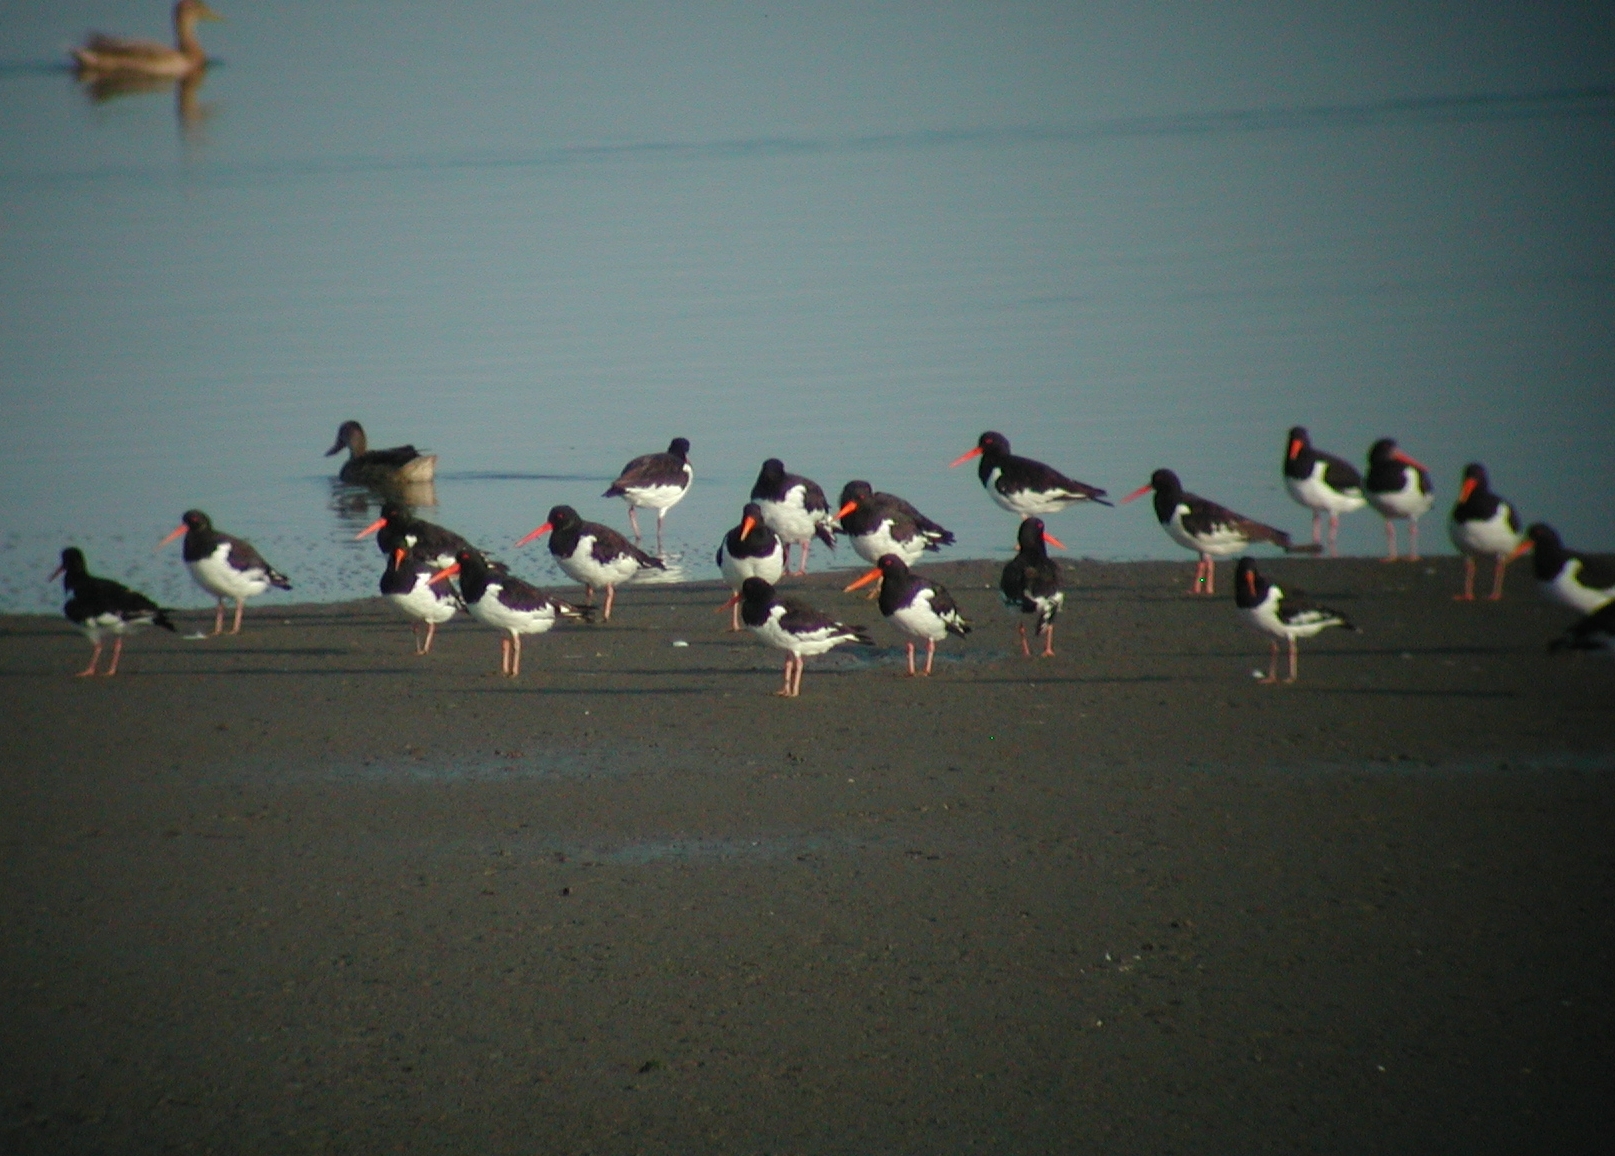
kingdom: Animalia
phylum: Chordata
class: Aves
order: Charadriiformes
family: Haematopodidae
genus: Haematopus
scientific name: Haematopus ostralegus
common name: Eurasian oystercatcher
